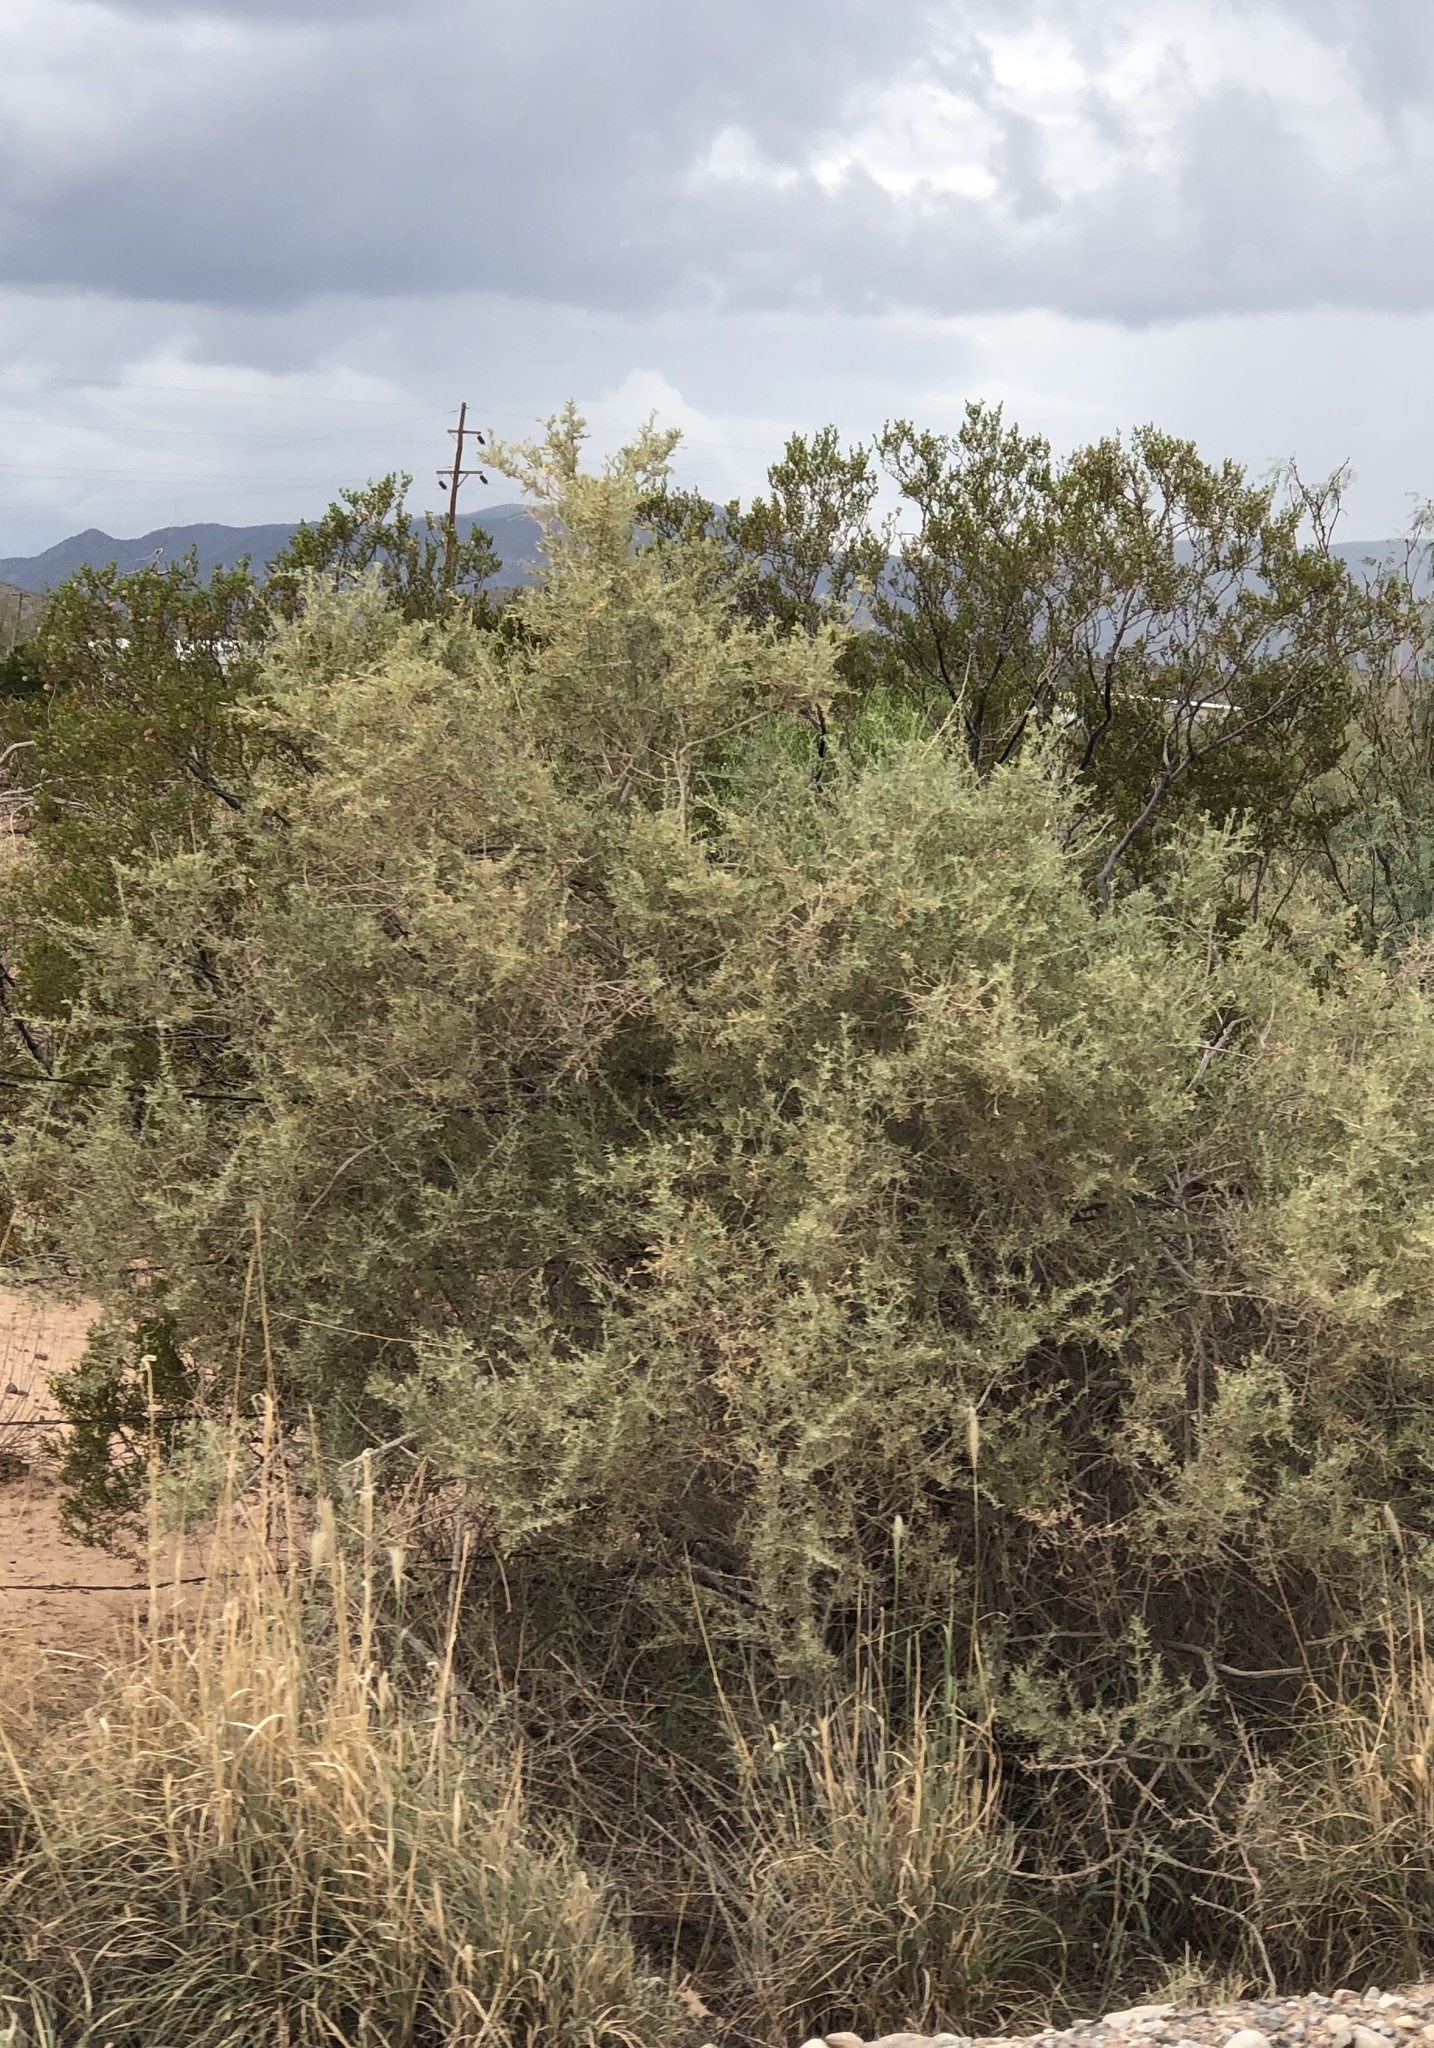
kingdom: Plantae
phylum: Tracheophyta
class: Magnoliopsida
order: Caryophyllales
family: Amaranthaceae
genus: Atriplex
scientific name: Atriplex canescens
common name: Four-wing saltbush
